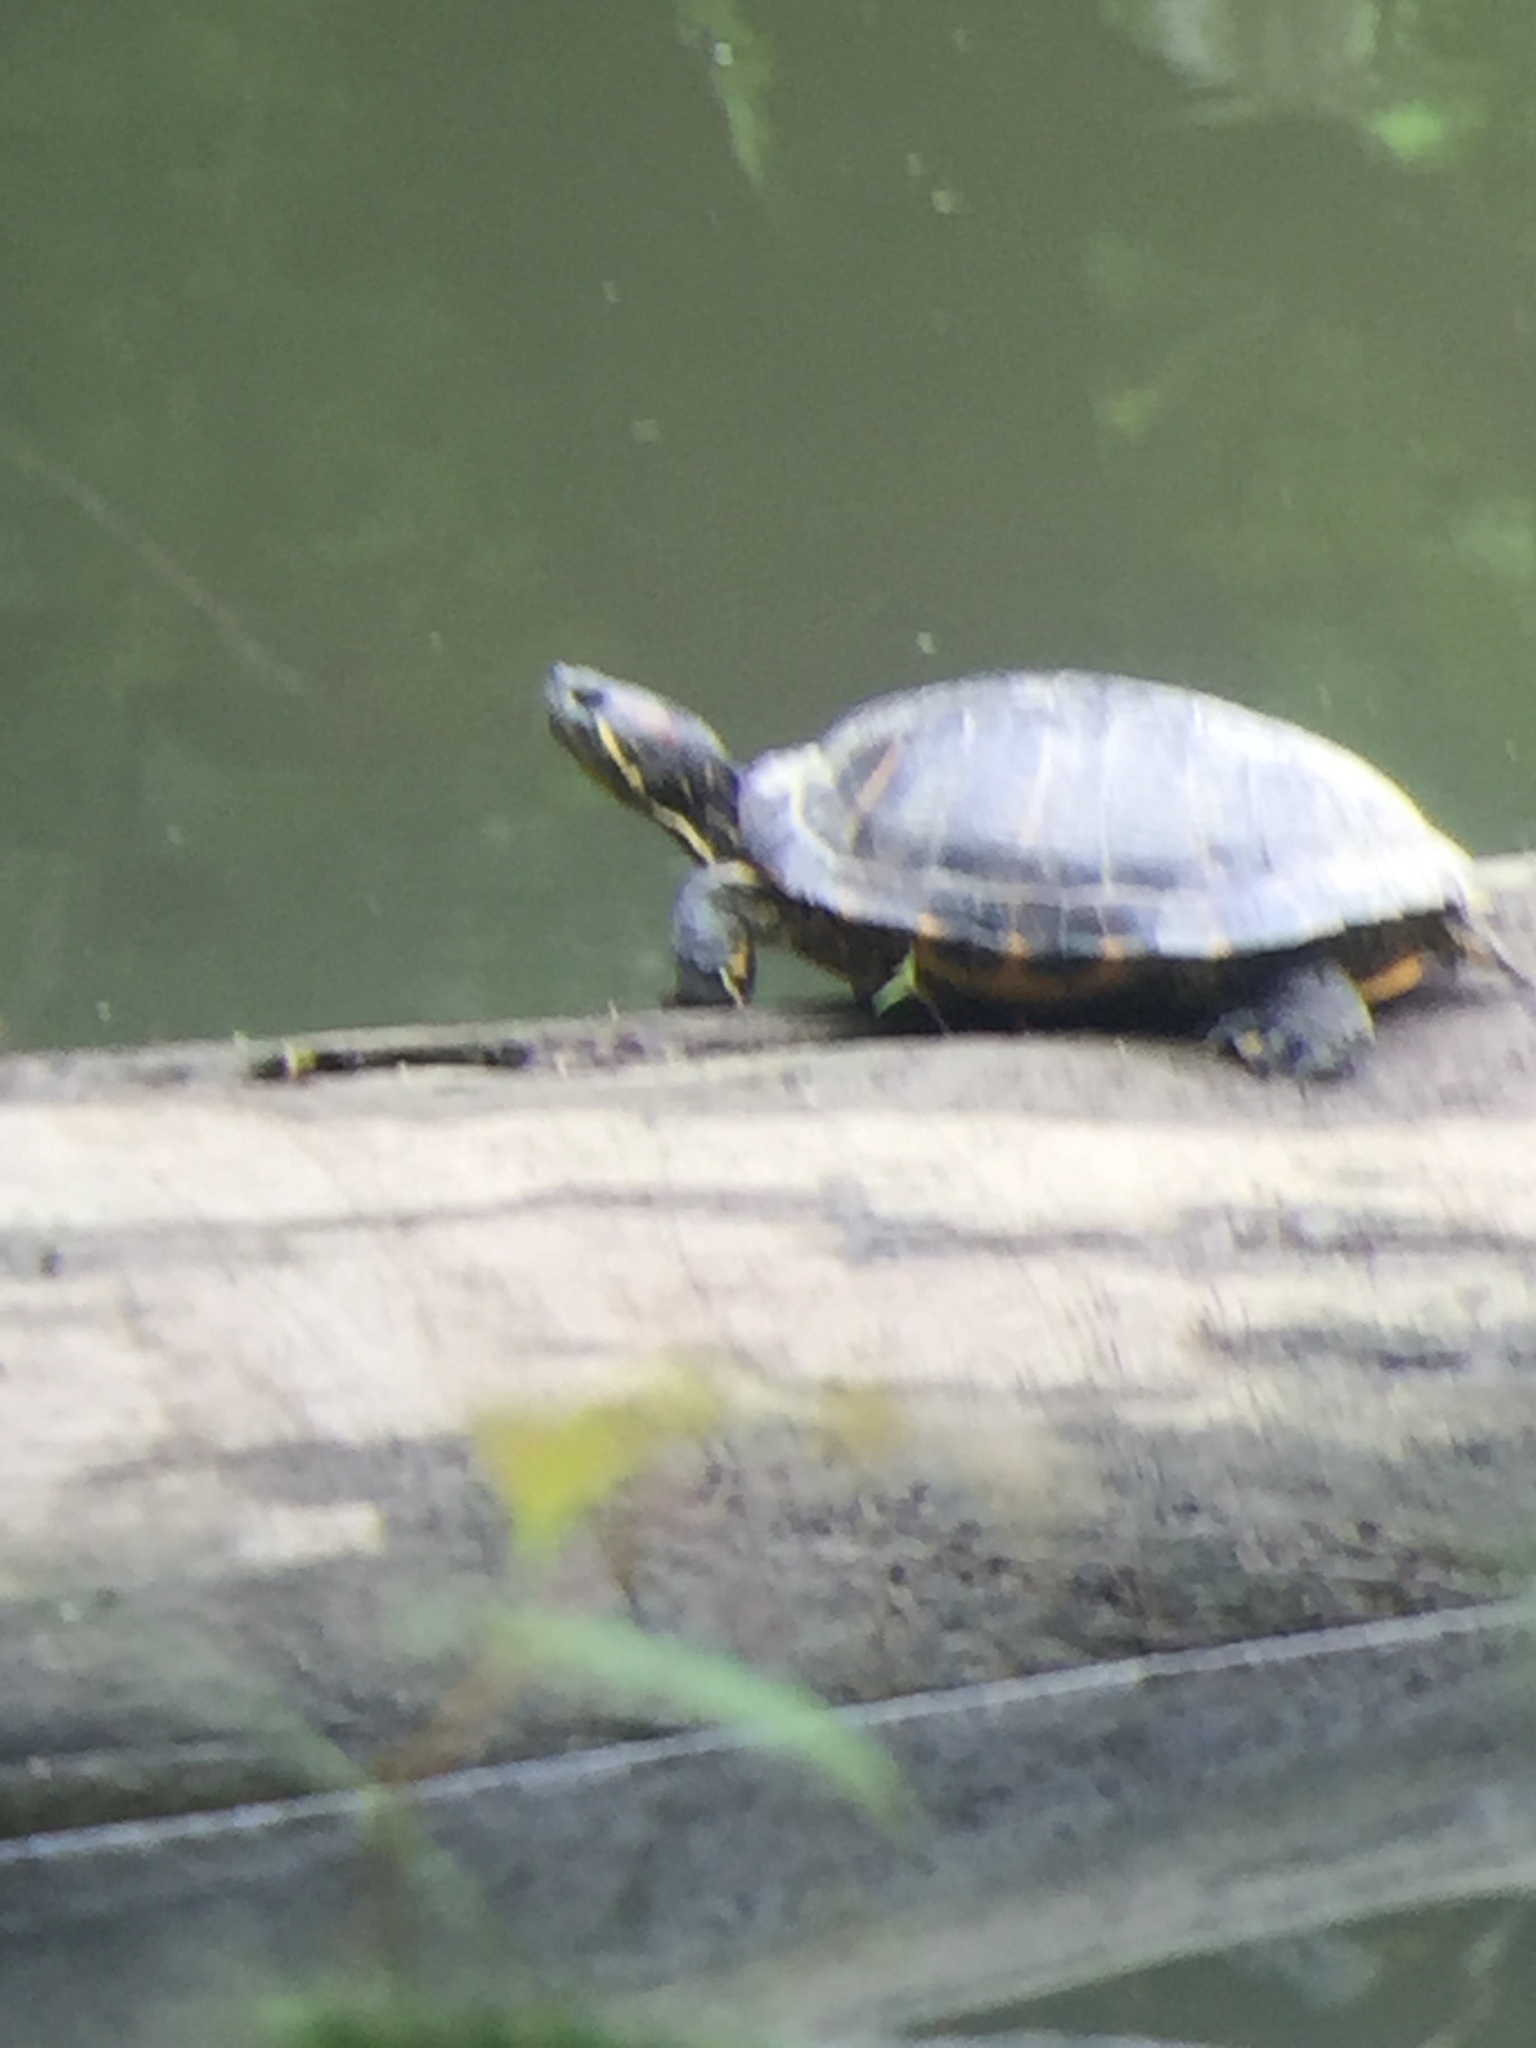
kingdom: Animalia
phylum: Chordata
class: Testudines
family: Emydidae
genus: Trachemys
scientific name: Trachemys scripta
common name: Slider
